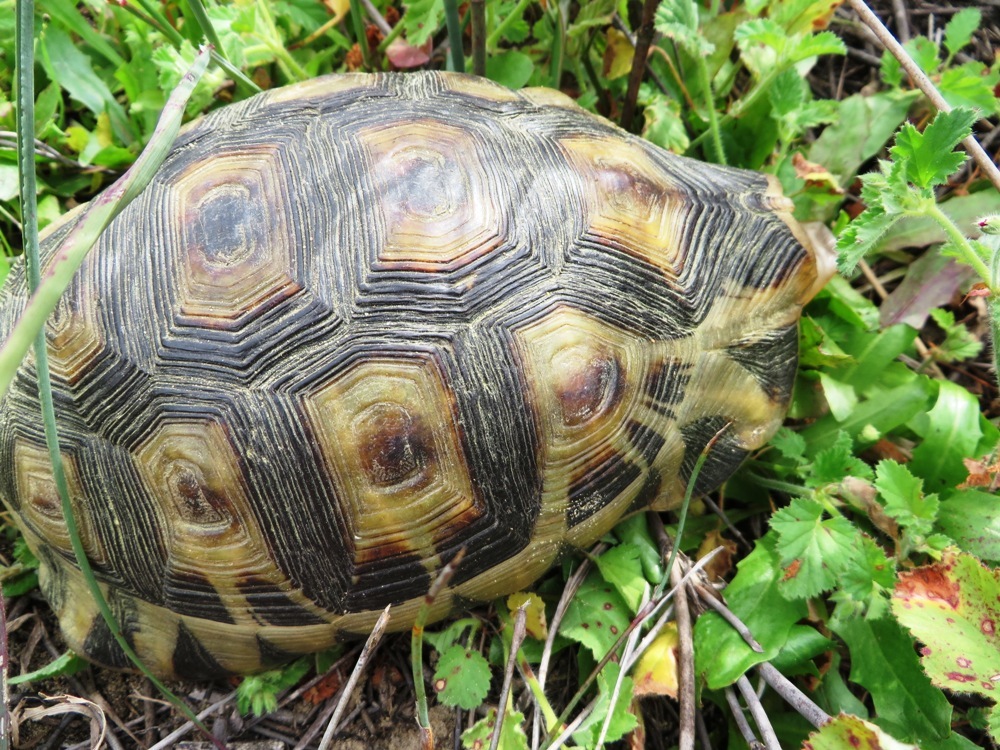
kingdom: Animalia
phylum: Chordata
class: Testudines
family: Testudinidae
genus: Chersina
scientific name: Chersina angulata
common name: South african bowsprit tortoise
